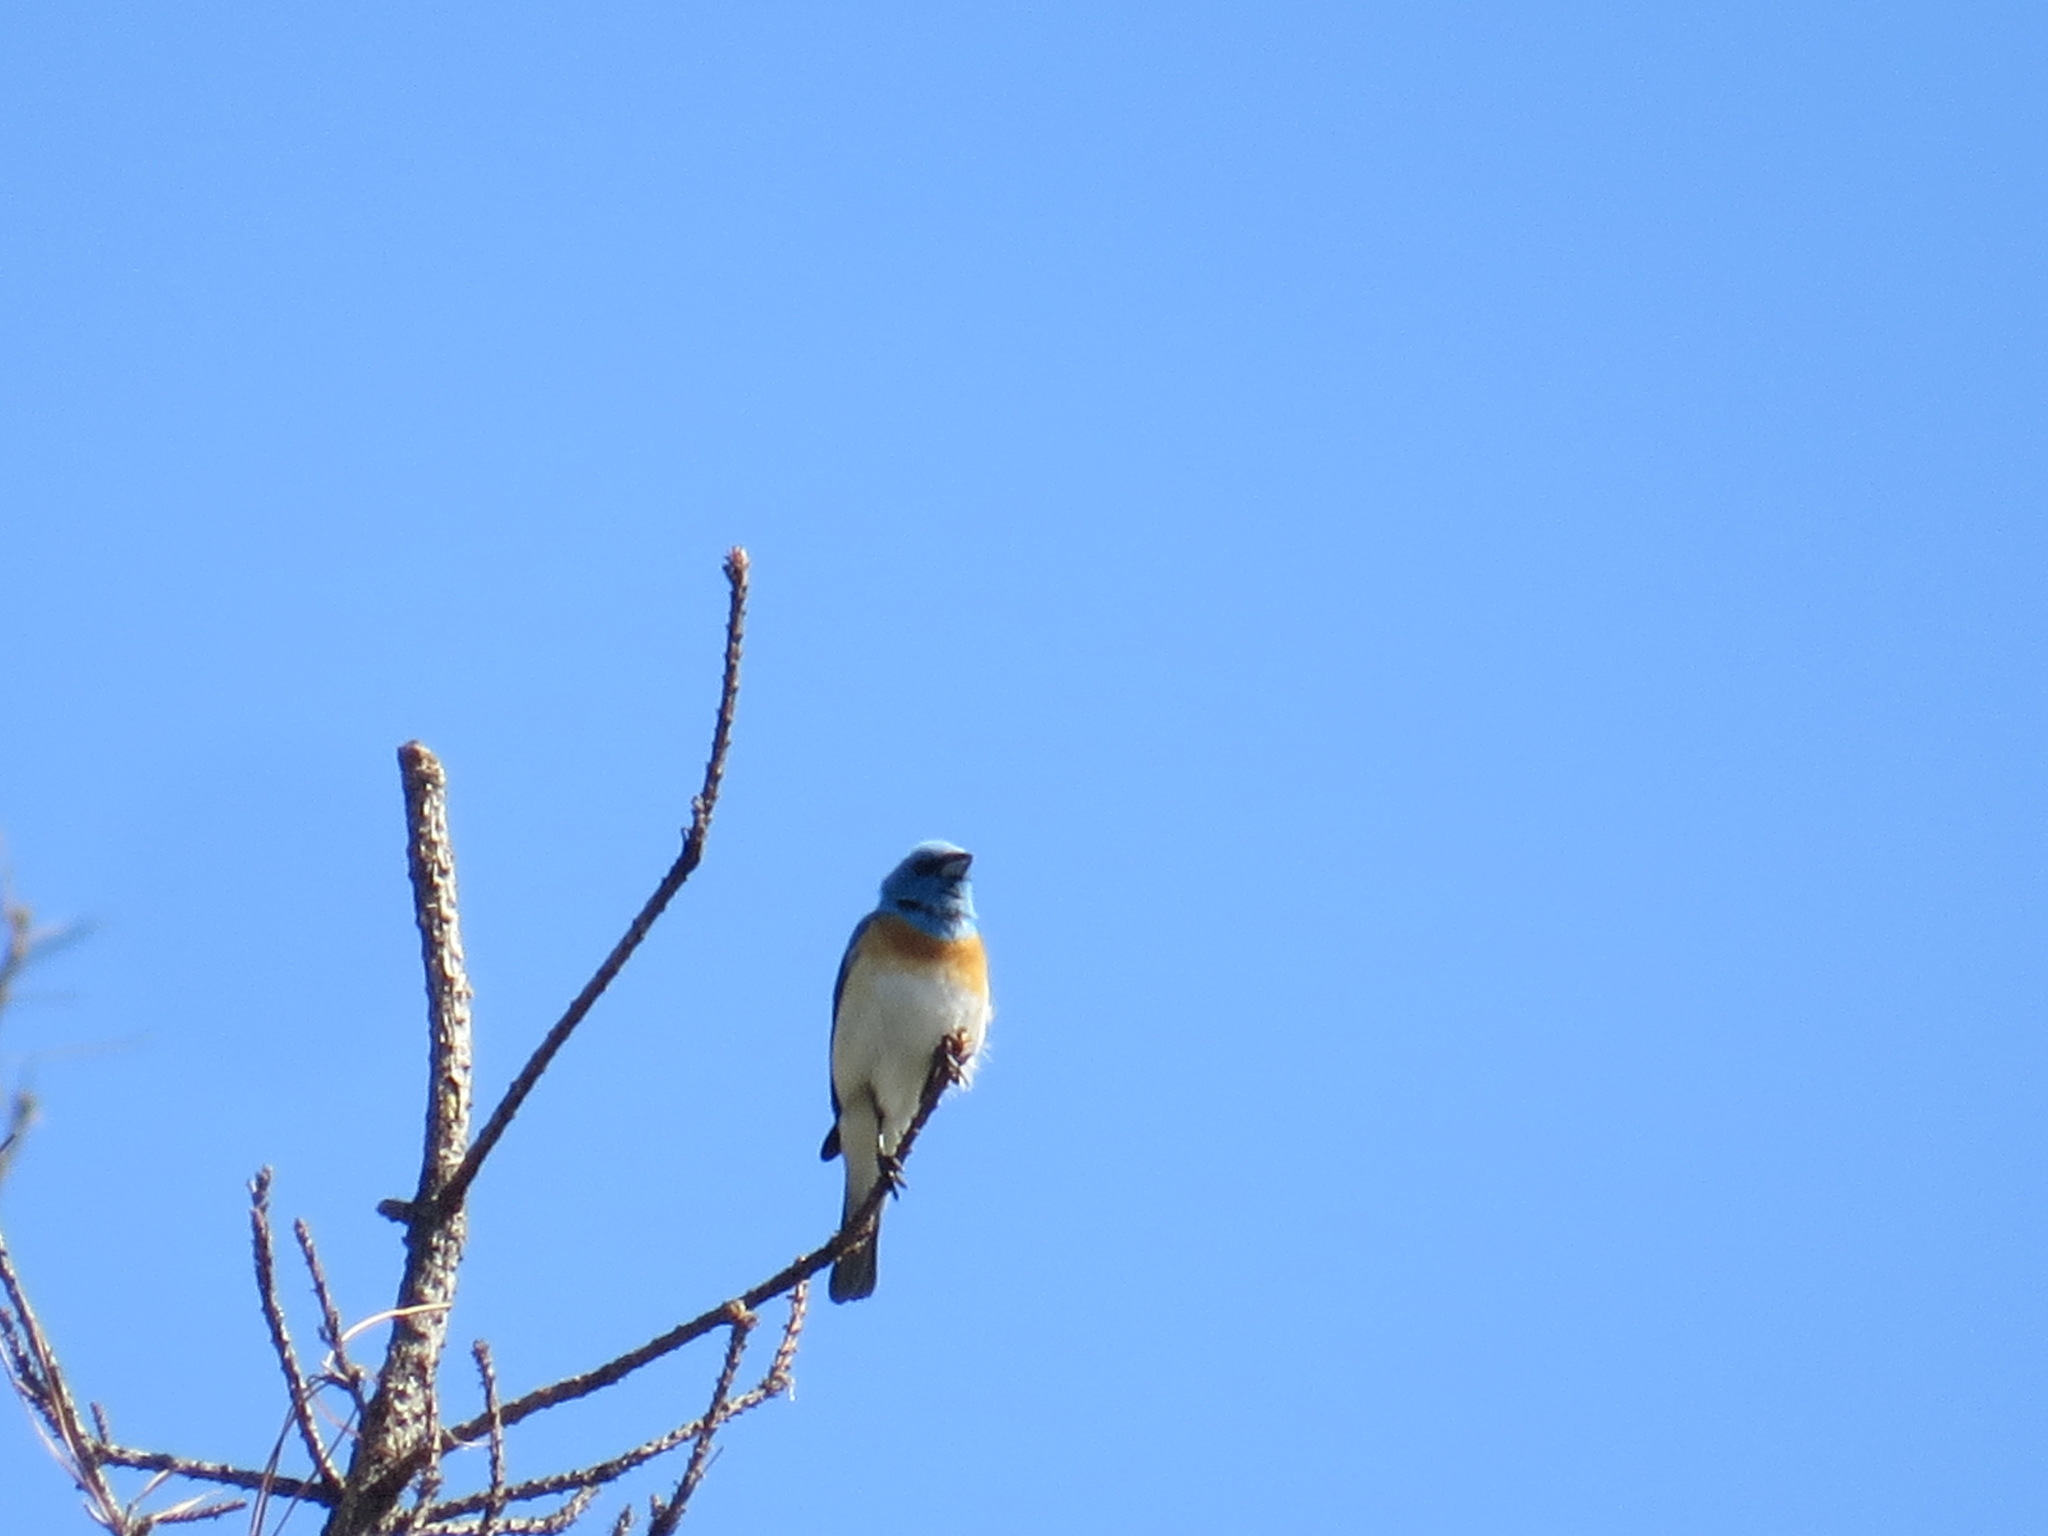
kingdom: Animalia
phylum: Chordata
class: Aves
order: Passeriformes
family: Cardinalidae
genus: Passerina
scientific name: Passerina amoena
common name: Lazuli bunting
